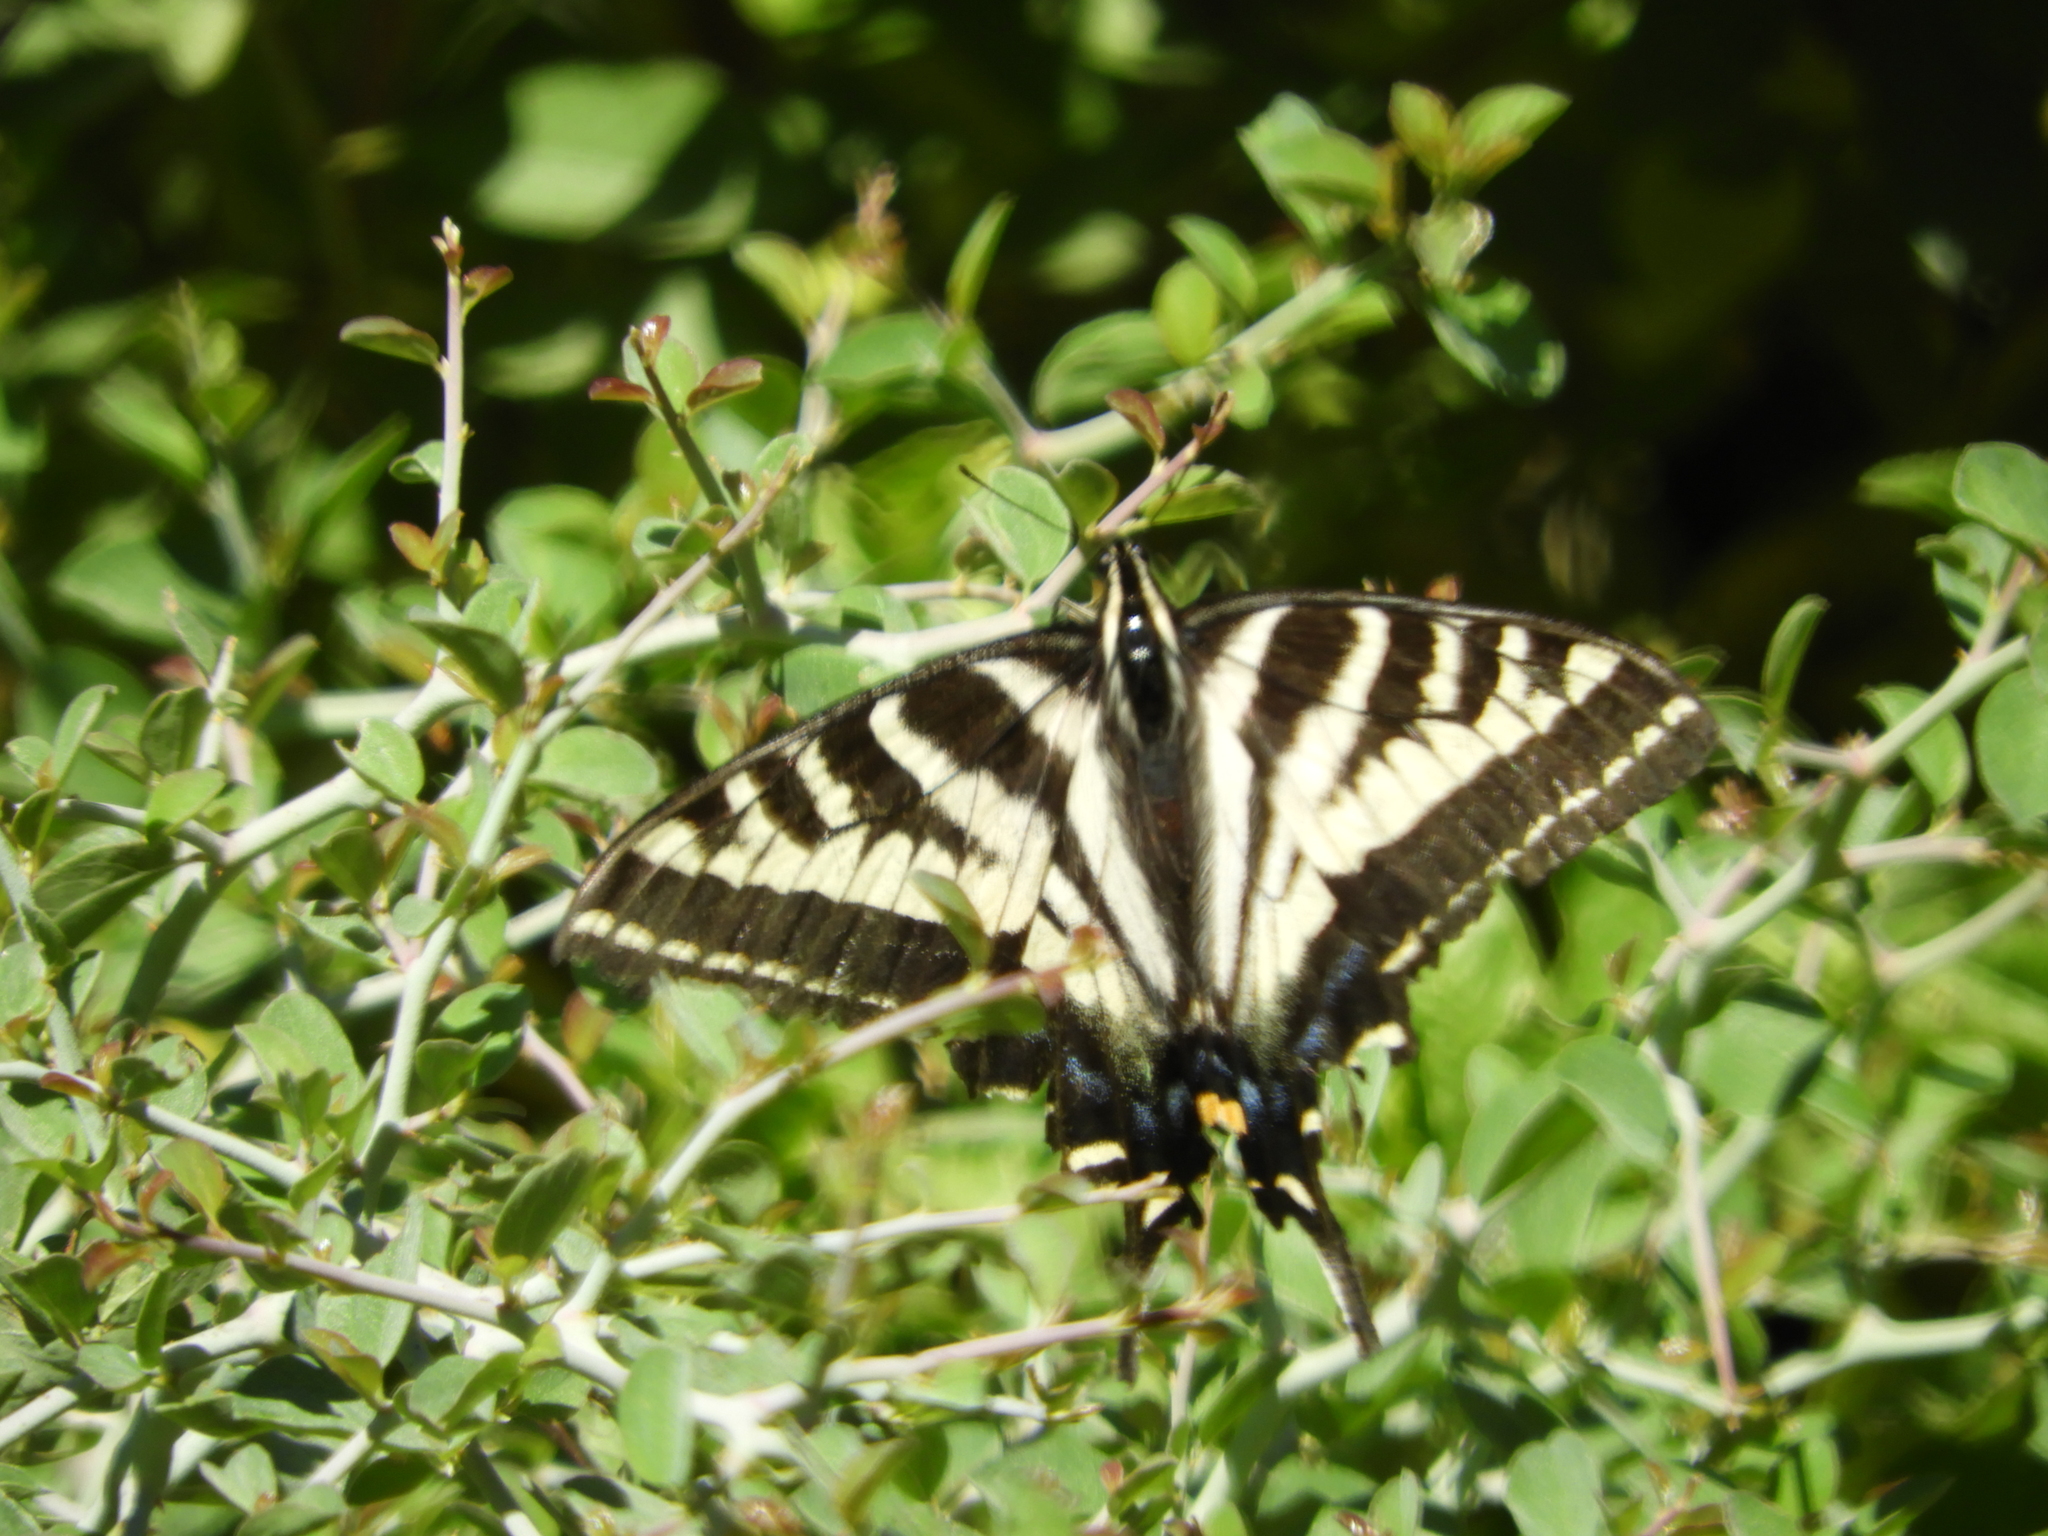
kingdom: Animalia
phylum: Arthropoda
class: Insecta
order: Lepidoptera
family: Papilionidae
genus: Papilio
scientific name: Papilio eurymedon
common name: Pale tiger swallowtail
